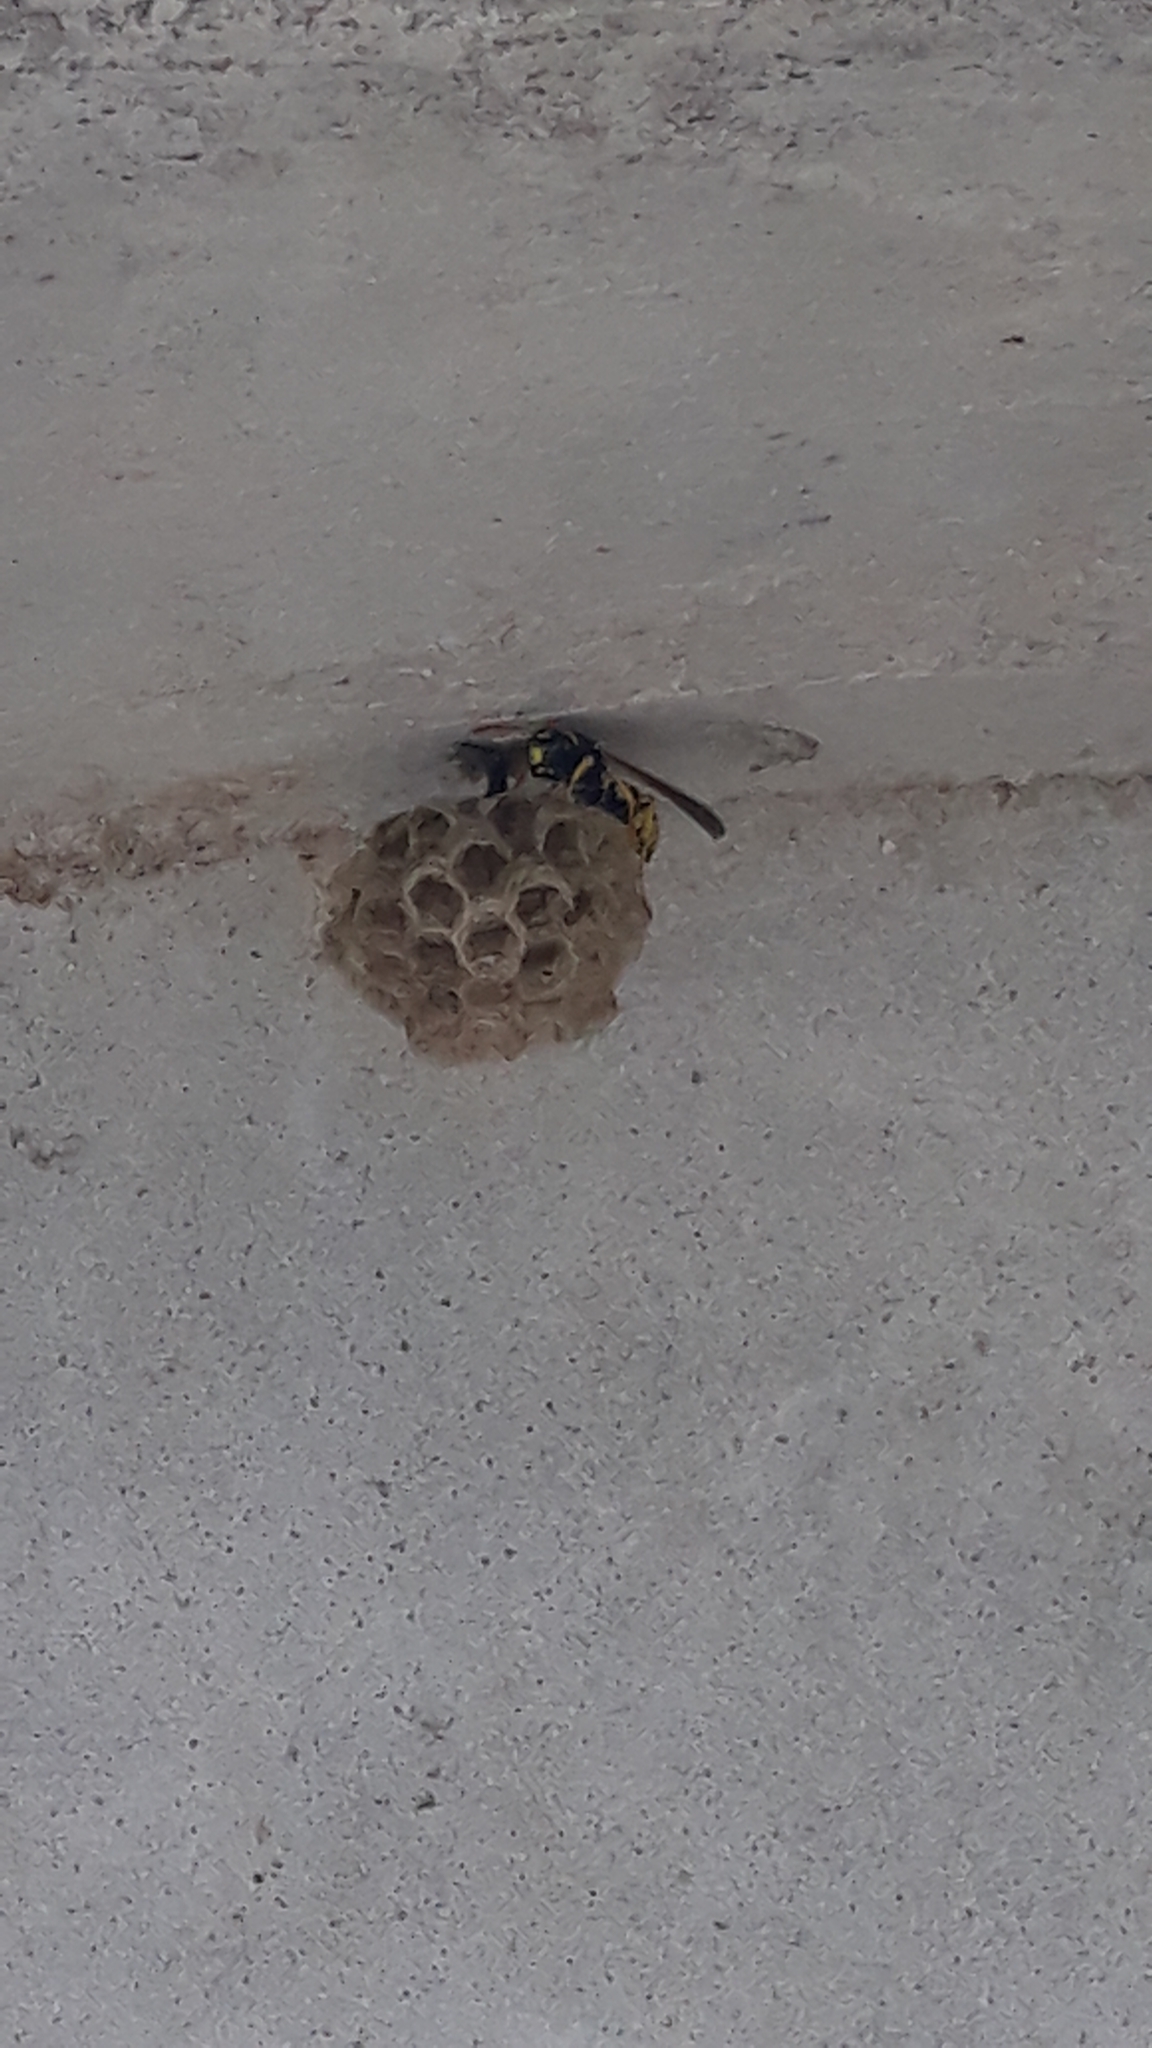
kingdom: Animalia
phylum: Arthropoda
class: Insecta
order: Hymenoptera
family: Eumenidae
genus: Polistes
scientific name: Polistes gallicus
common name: Paper wasp
